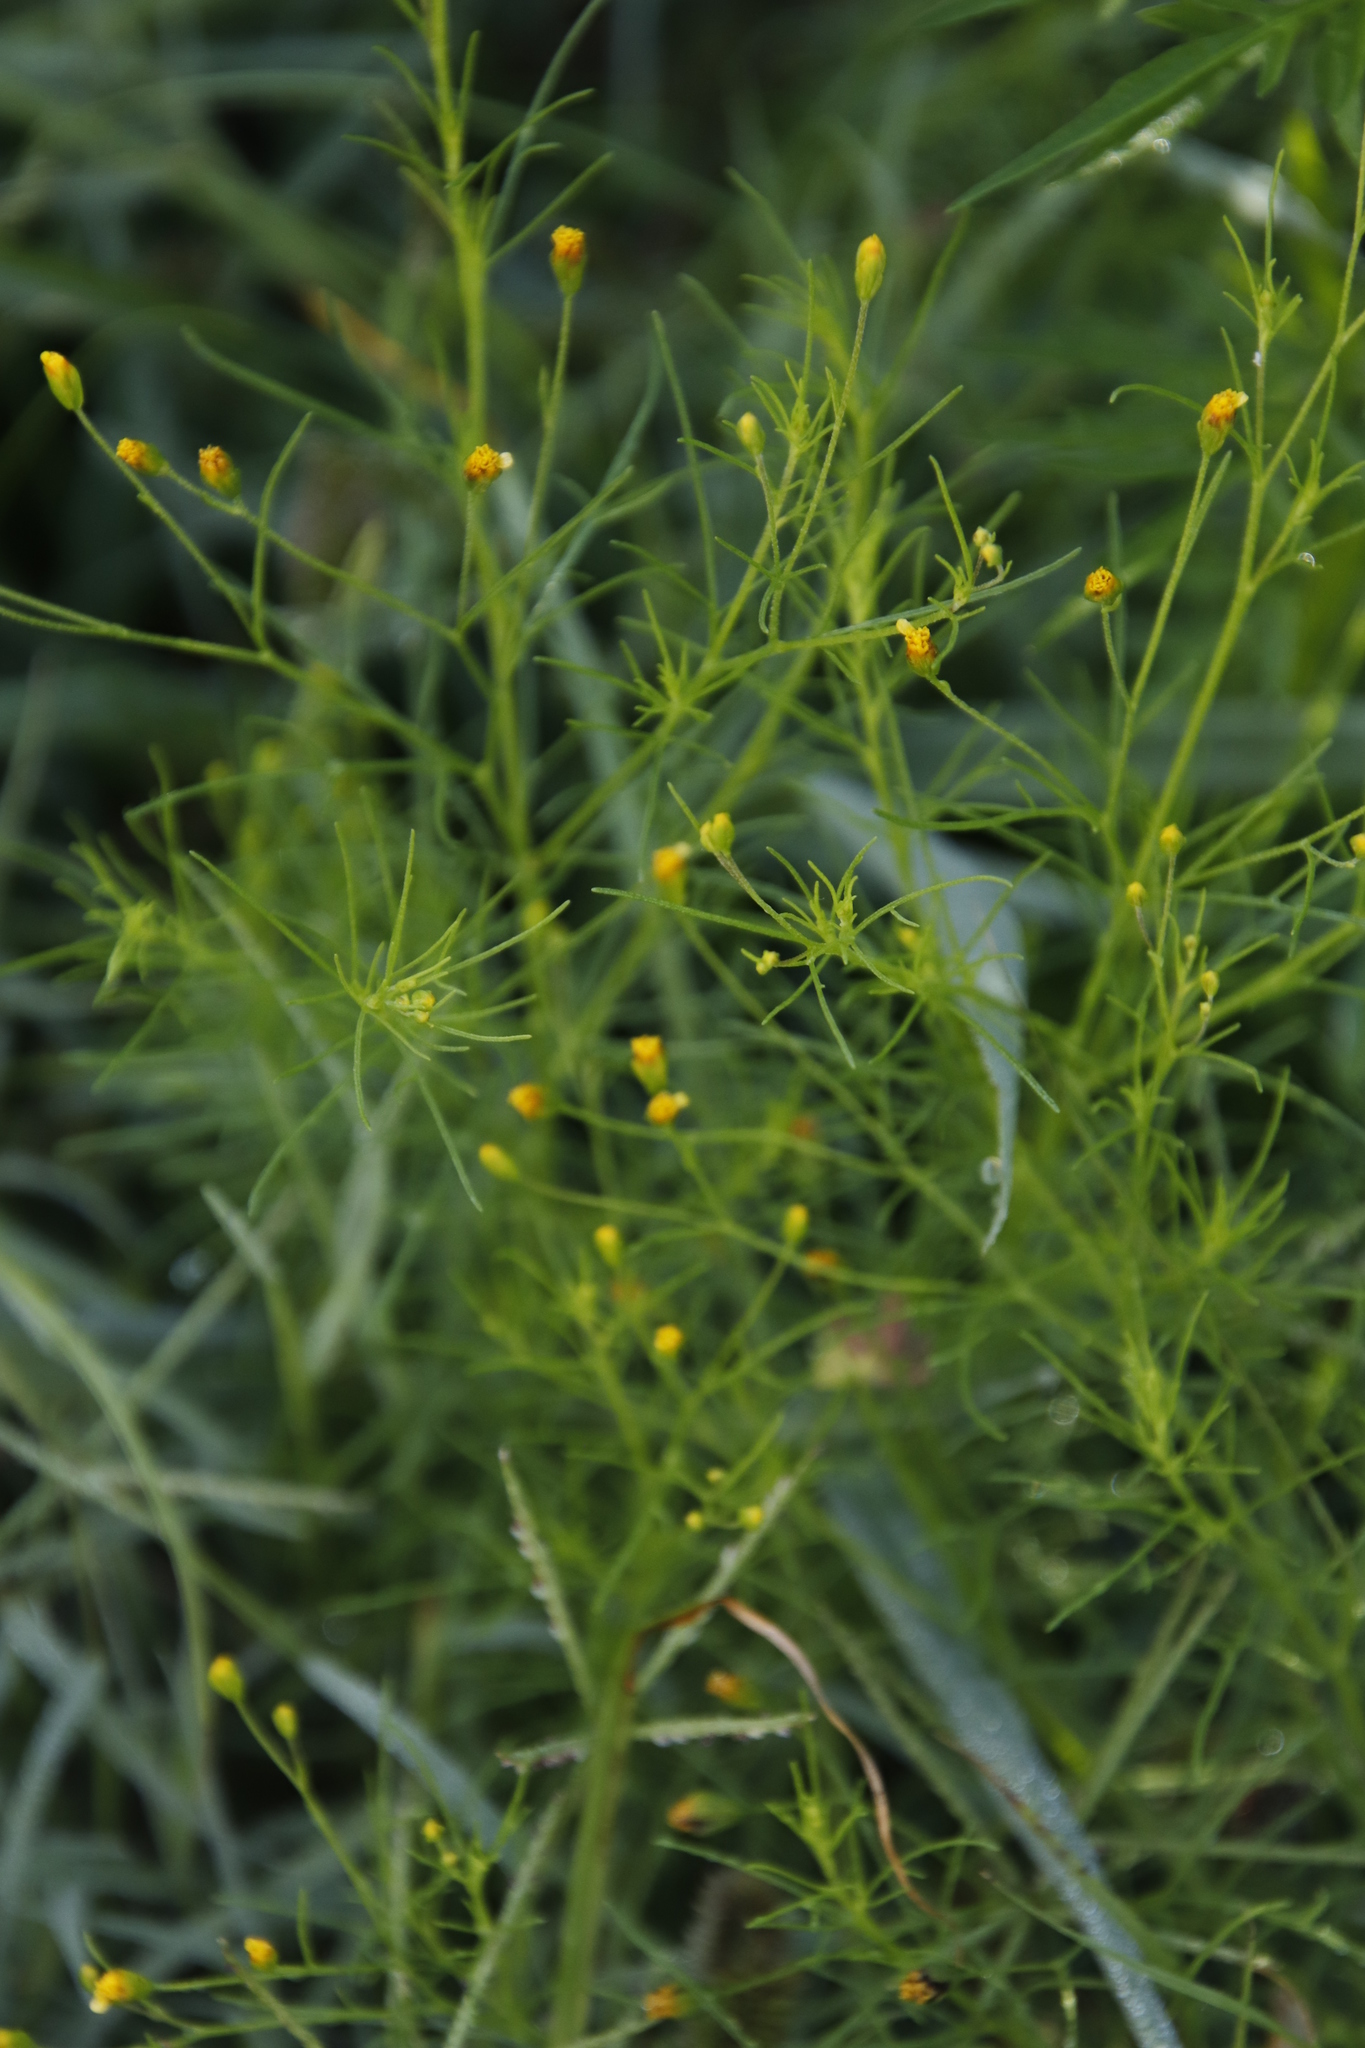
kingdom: Plantae
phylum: Tracheophyta
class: Magnoliopsida
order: Asterales
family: Asteraceae
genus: Schkuhria
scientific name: Schkuhria pinnata
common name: Dwarf marigold
